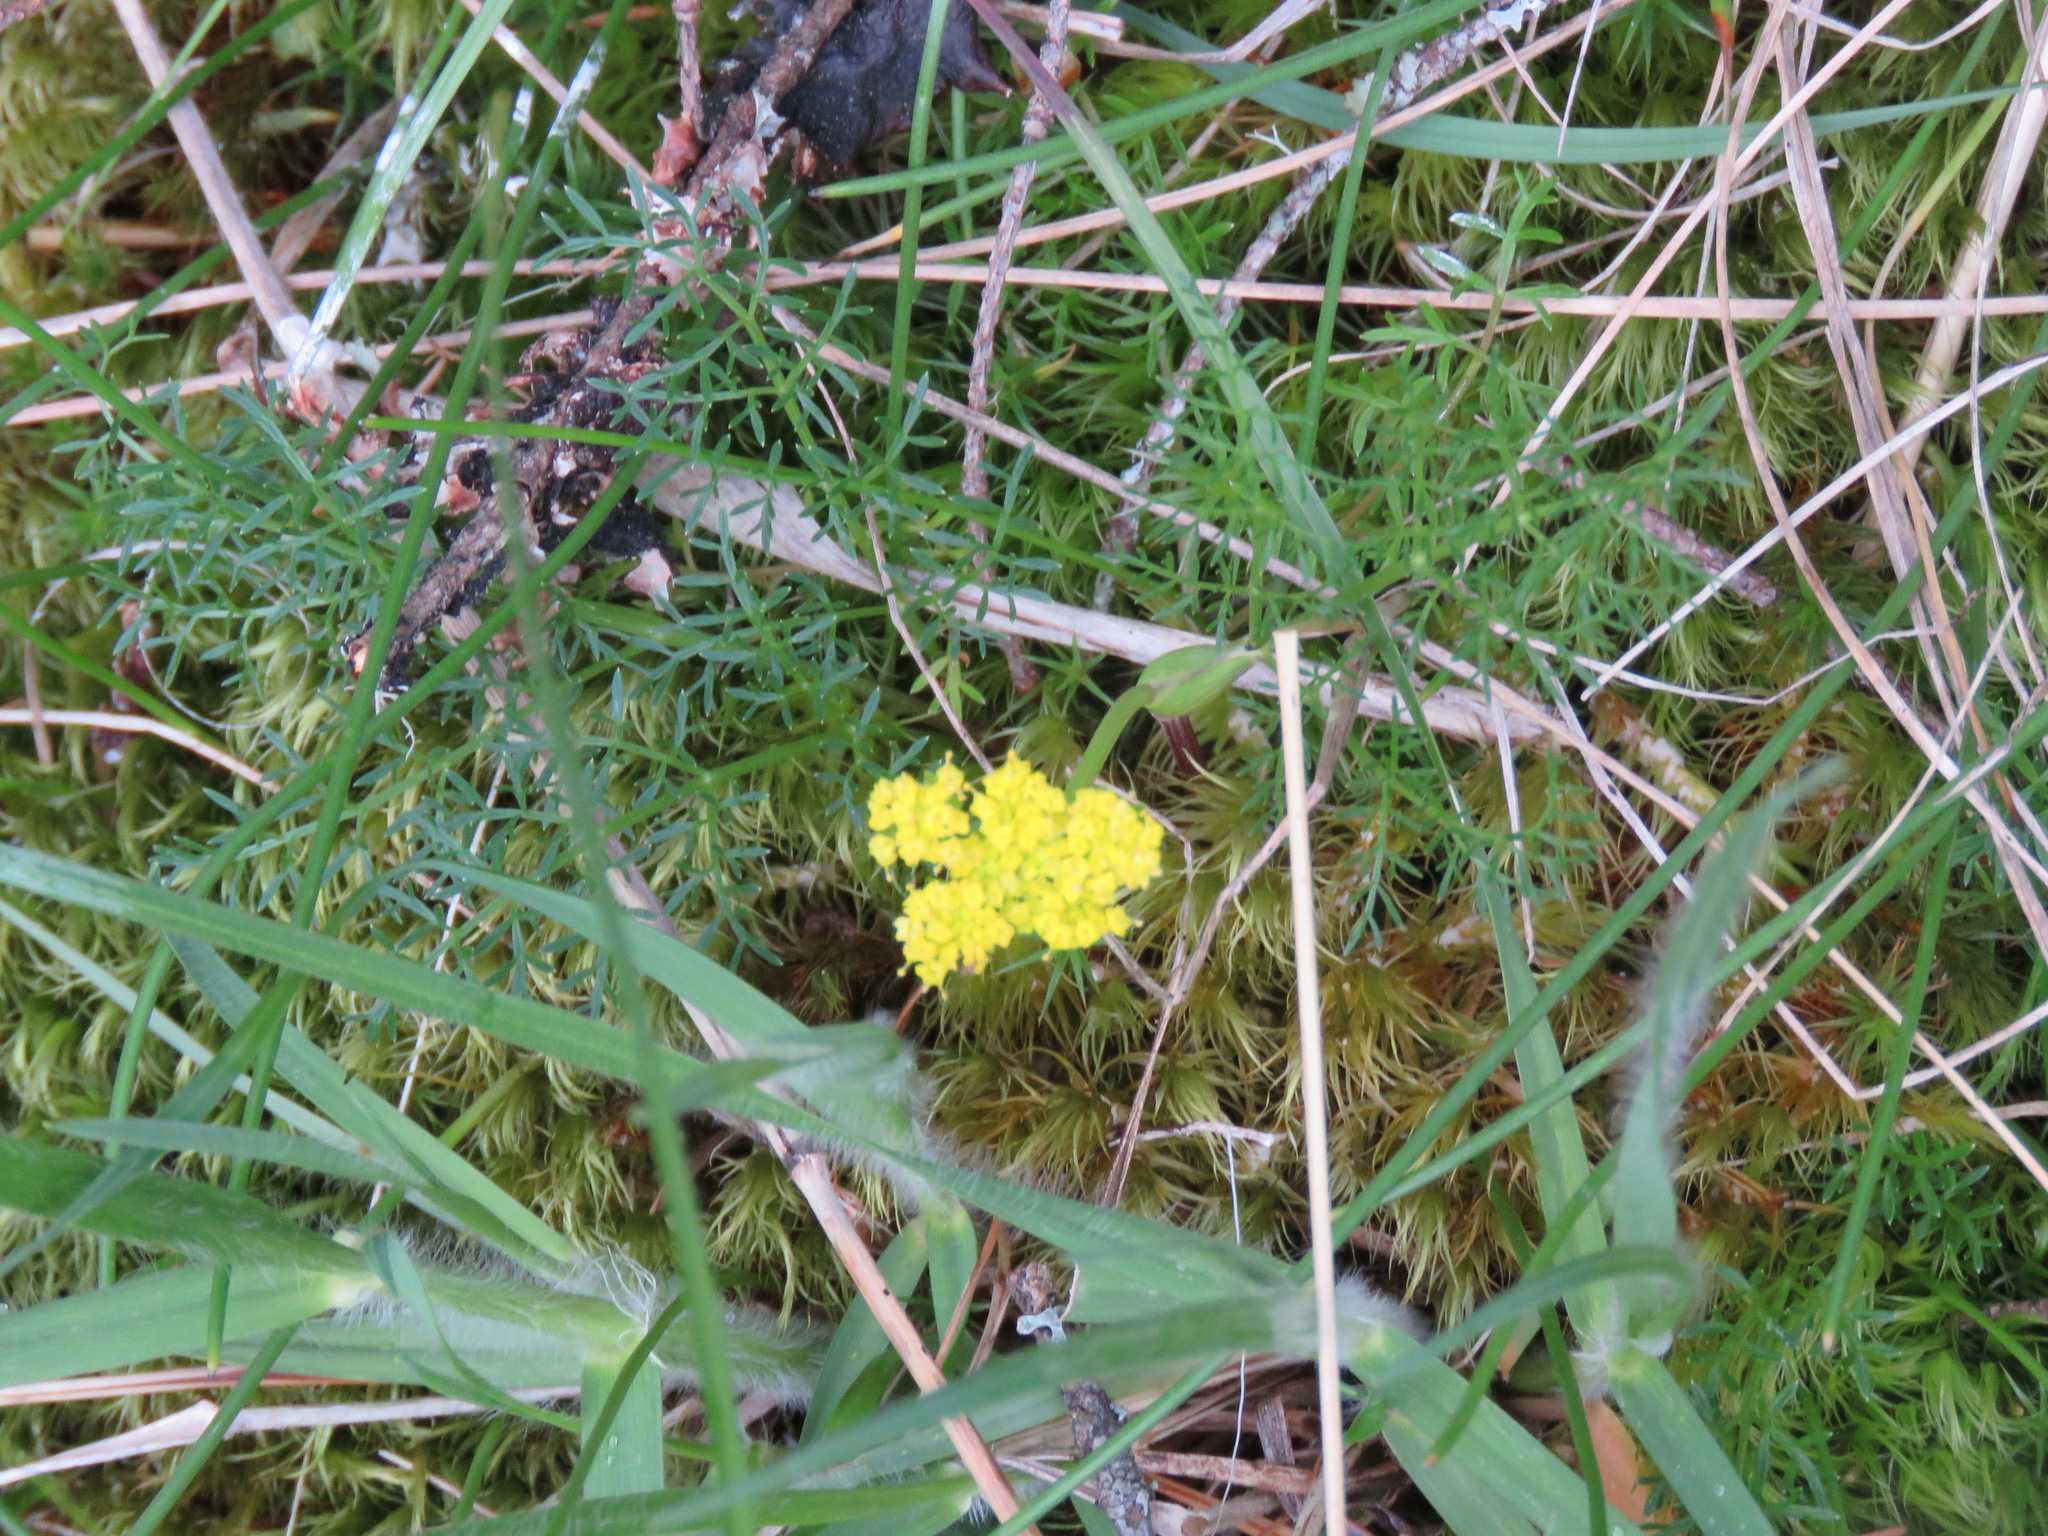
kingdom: Plantae
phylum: Tracheophyta
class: Magnoliopsida
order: Apiales
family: Apiaceae
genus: Lomatium
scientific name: Lomatium utriculatum
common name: Fine-leaf desert-parsley
